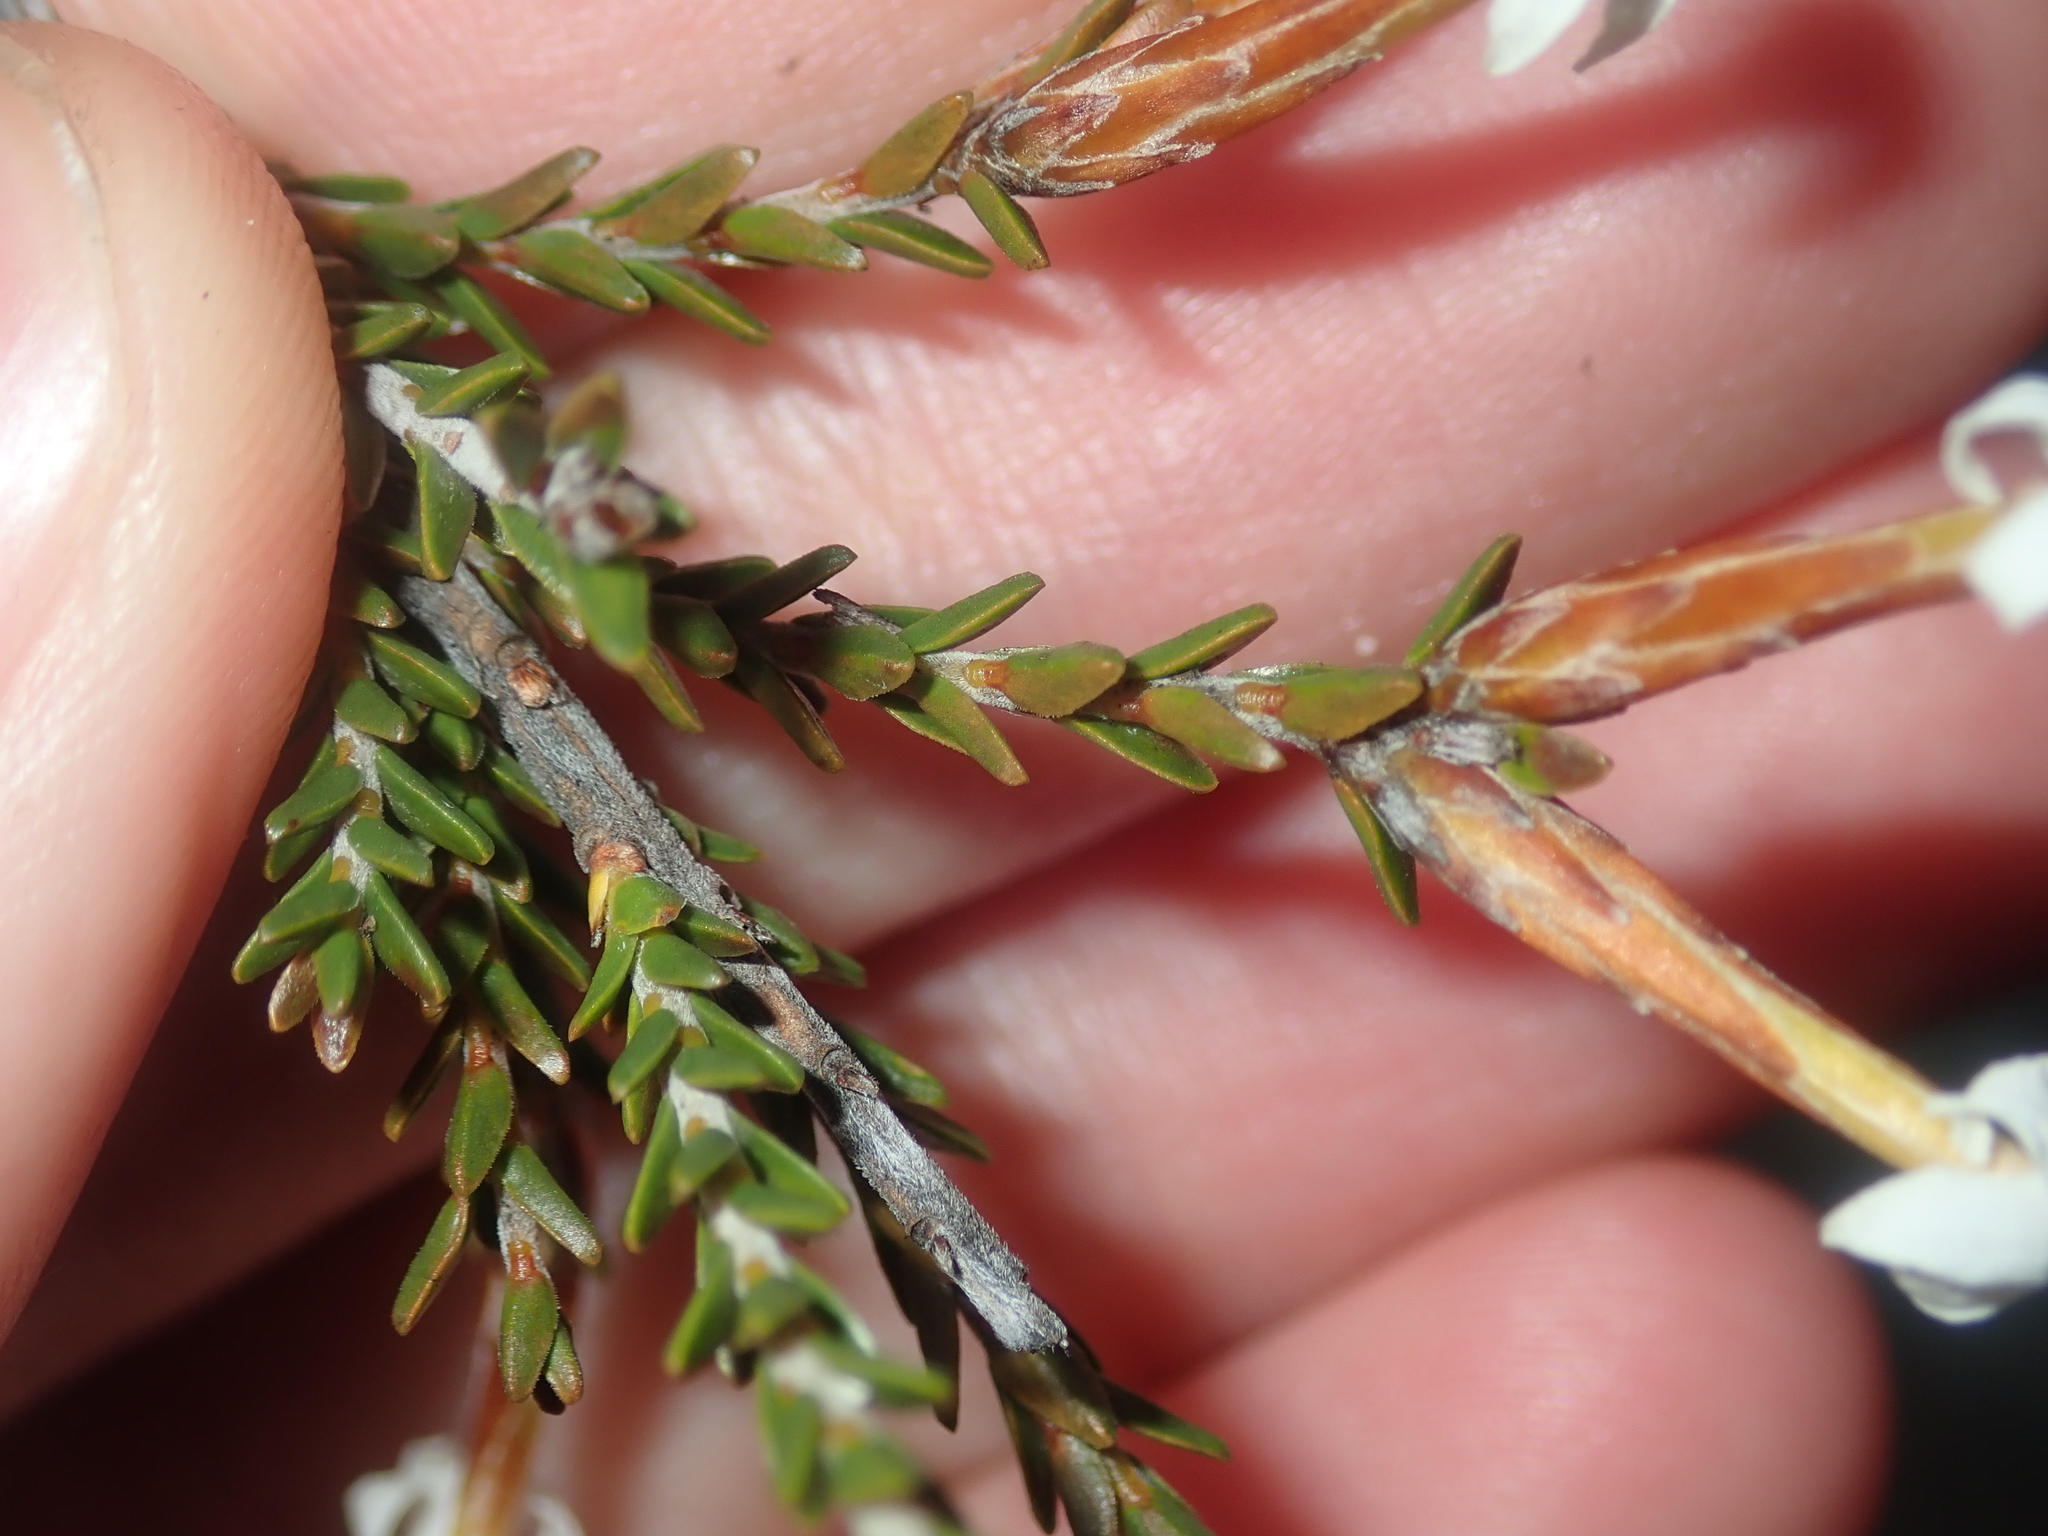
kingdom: Plantae
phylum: Tracheophyta
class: Magnoliopsida
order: Ericales
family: Ericaceae
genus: Lysinema
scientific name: Lysinema pentapetalum
